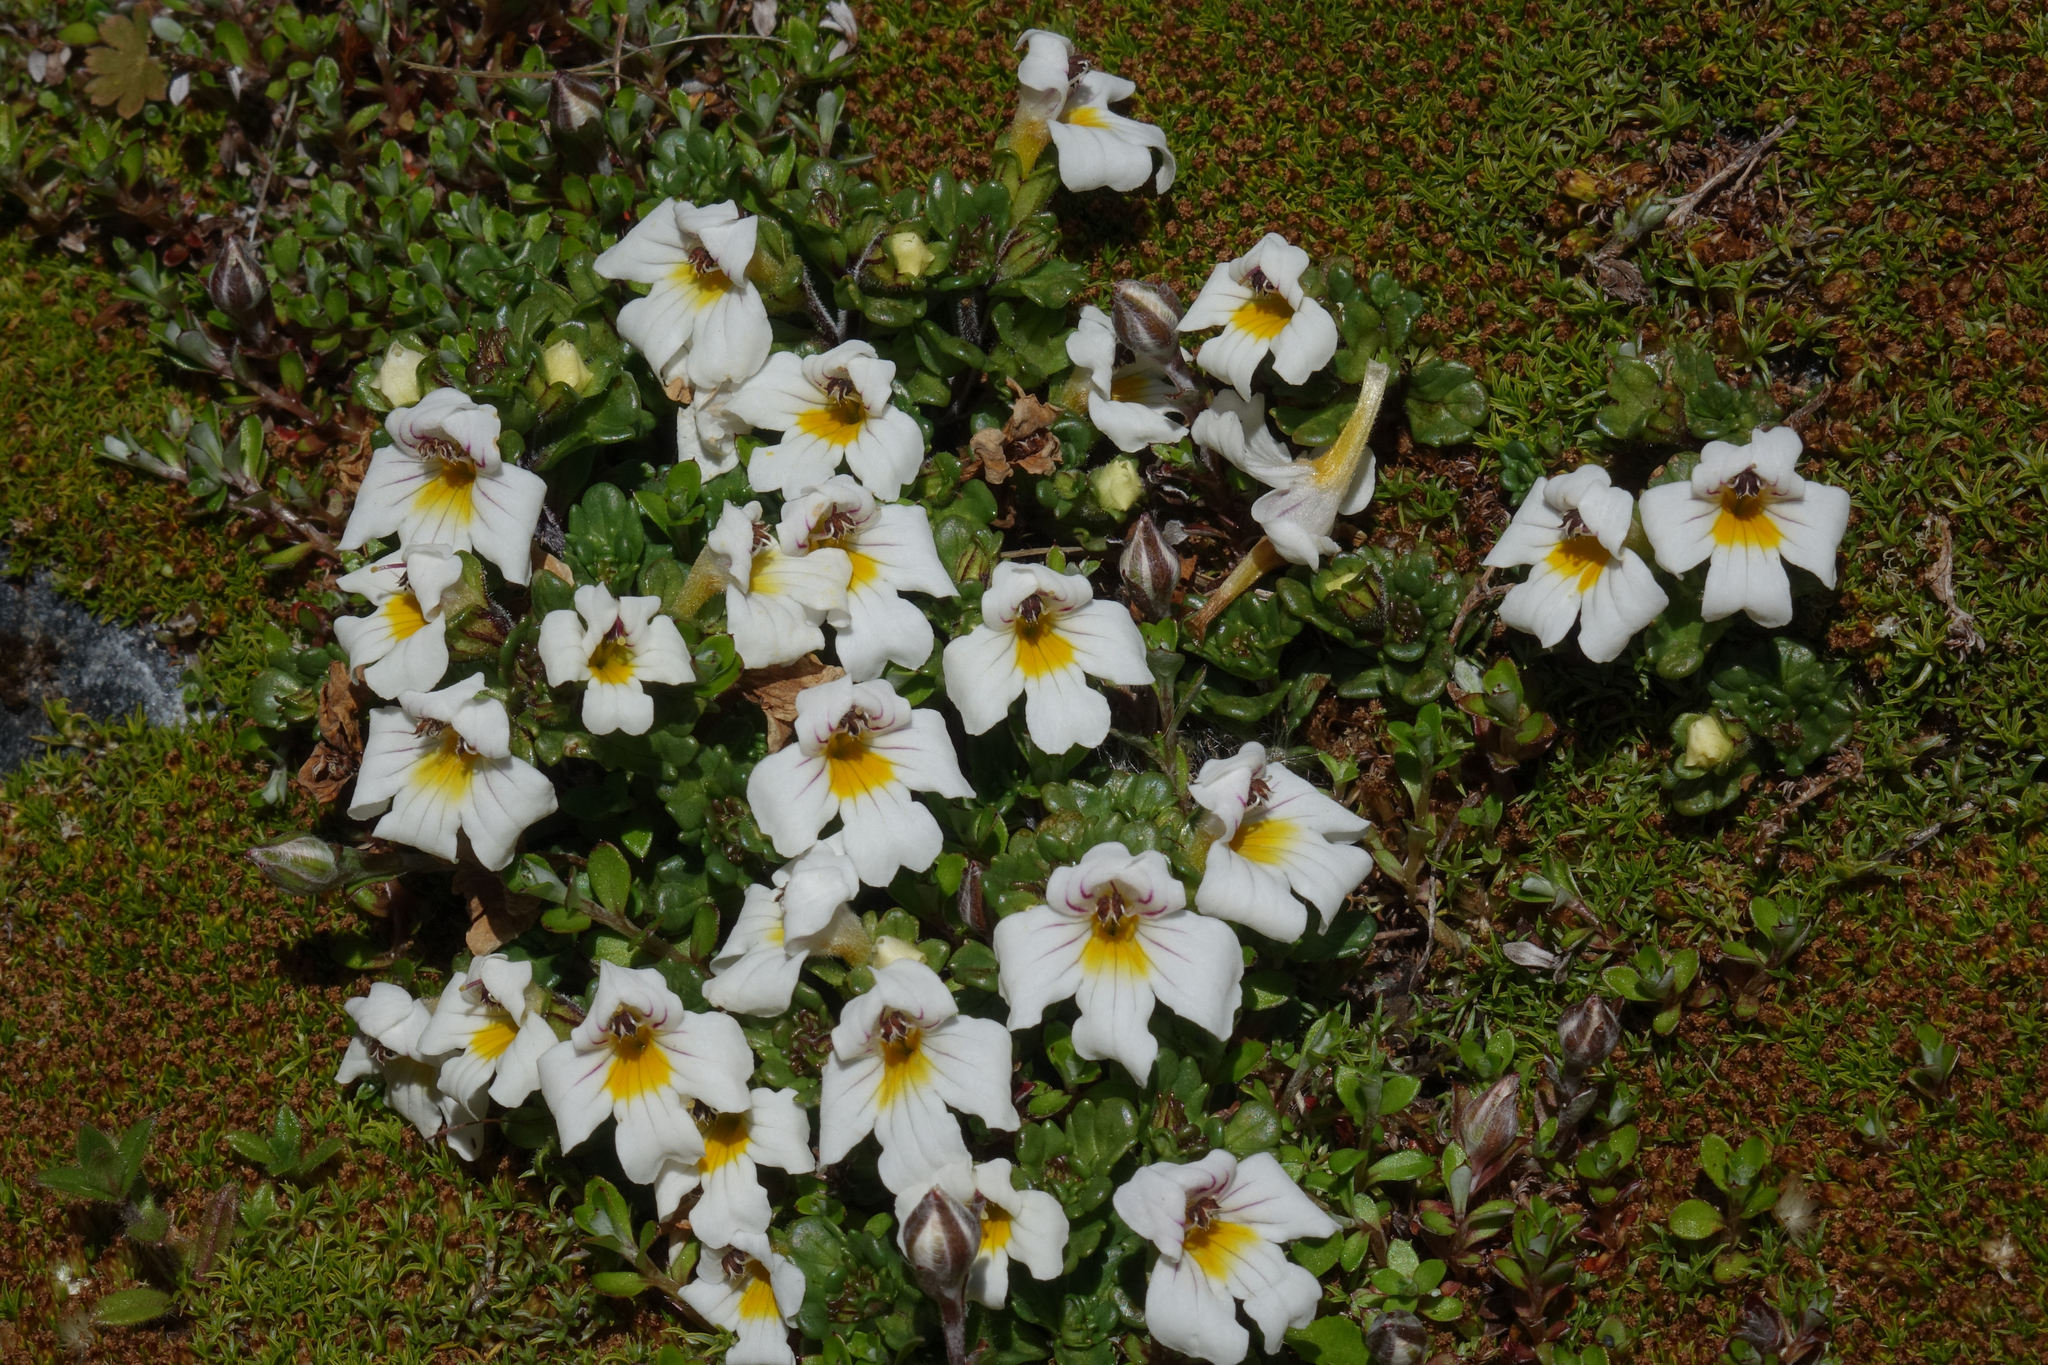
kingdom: Plantae
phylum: Tracheophyta
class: Magnoliopsida
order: Lamiales
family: Orobanchaceae
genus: Euphrasia
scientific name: Euphrasia petriei
